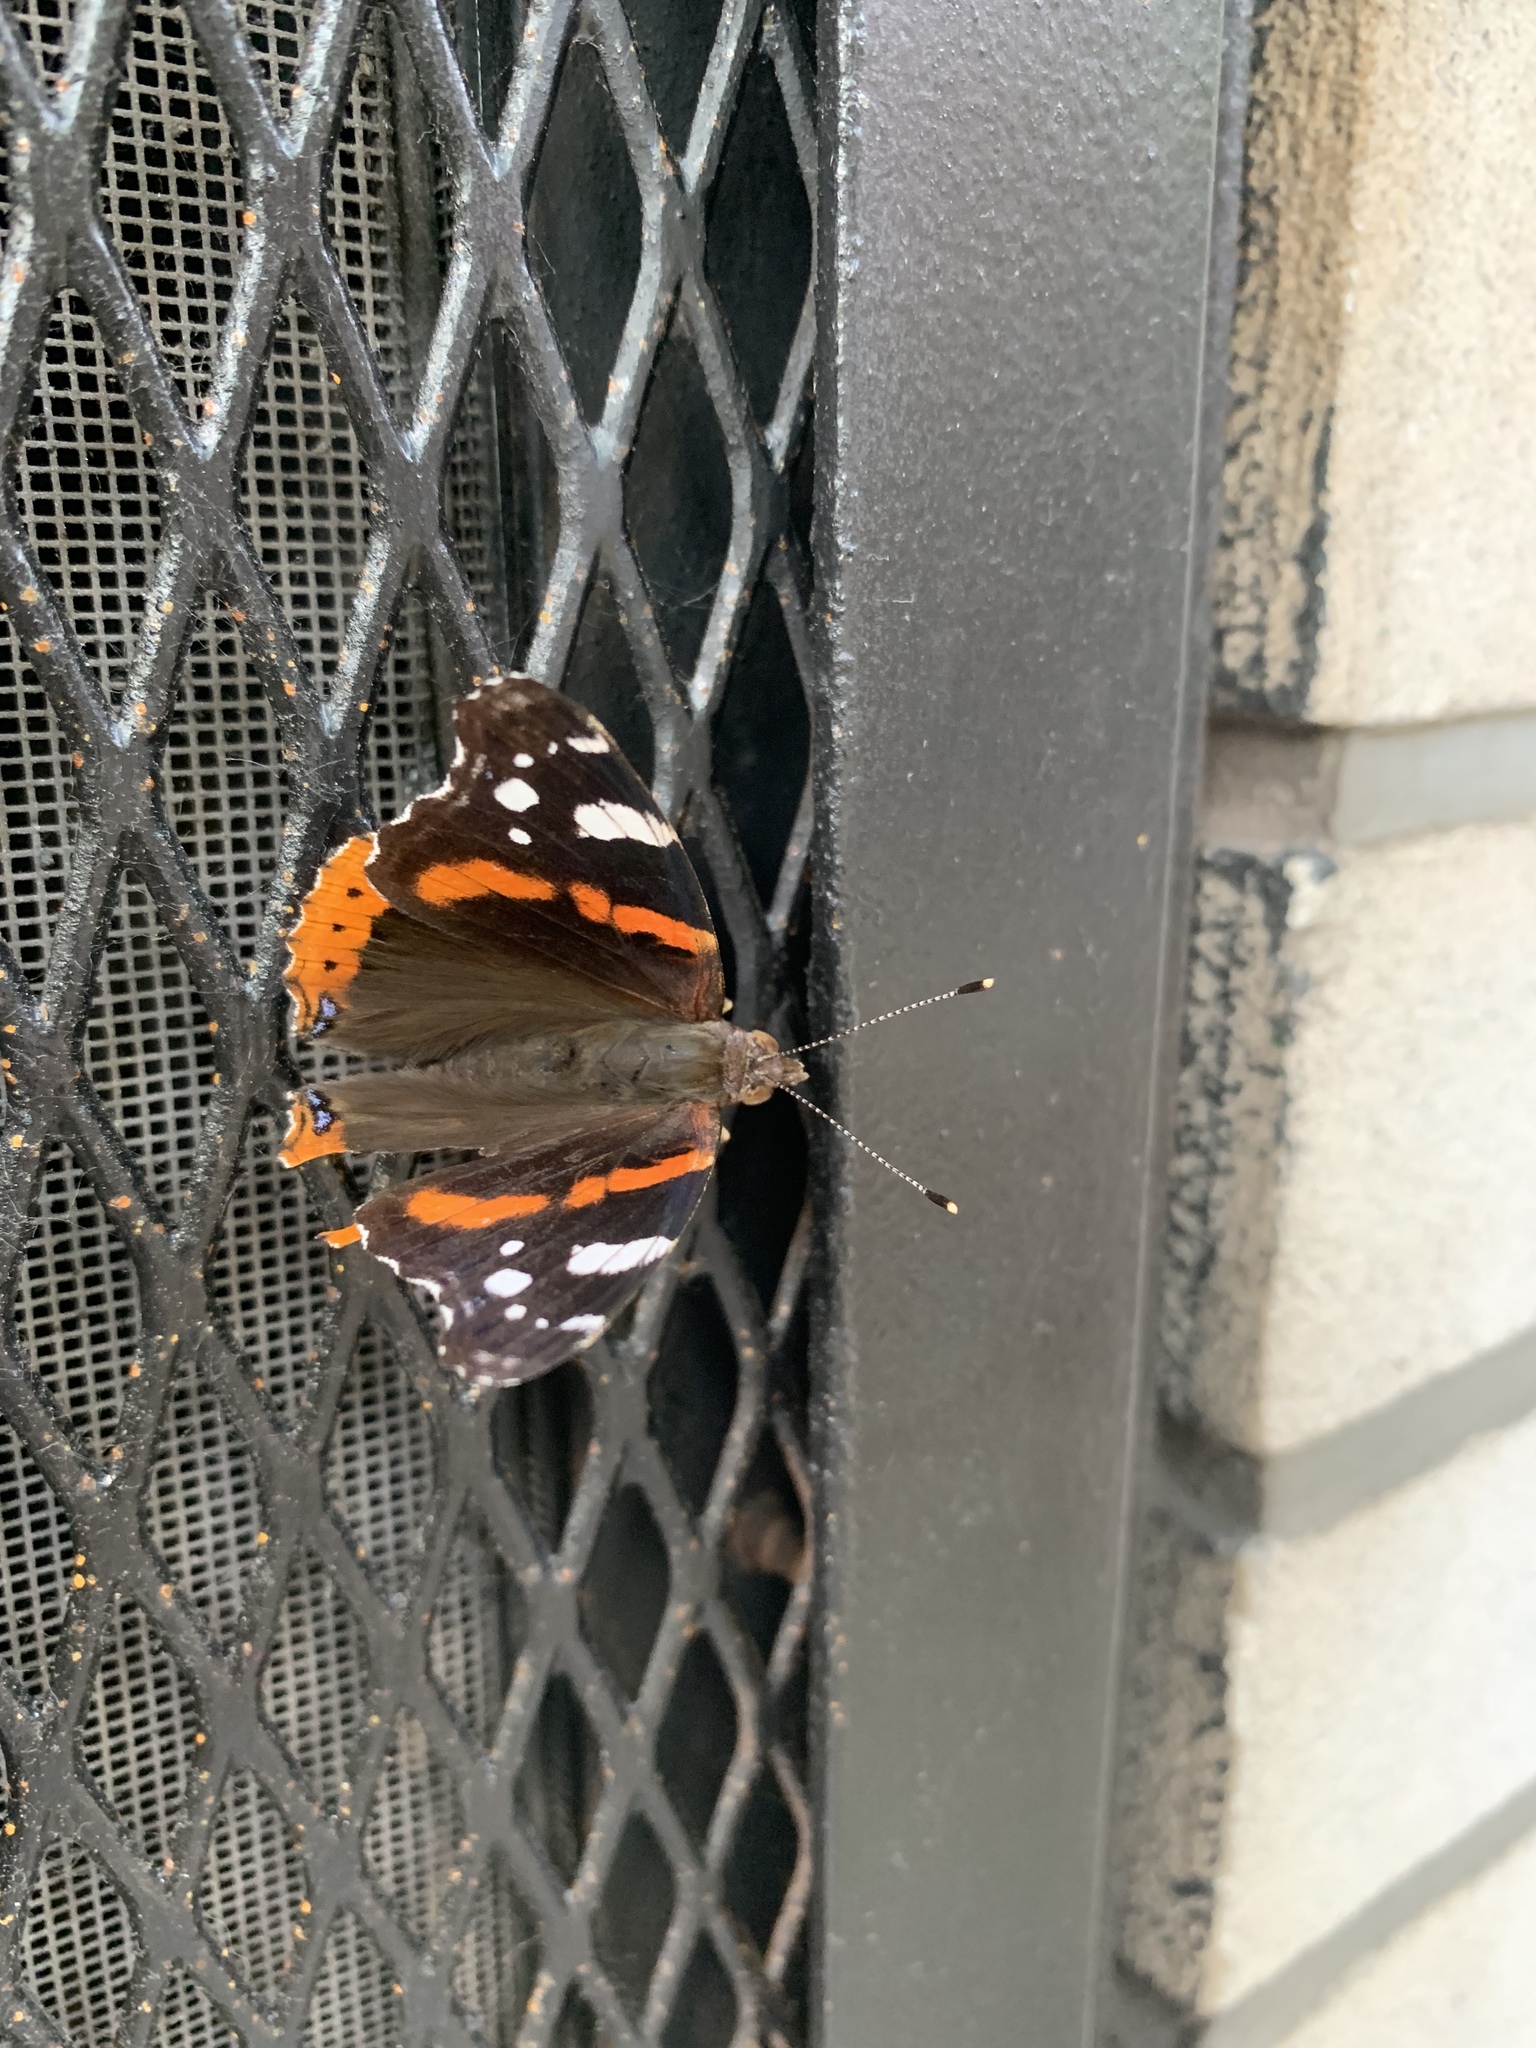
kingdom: Animalia
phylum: Arthropoda
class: Insecta
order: Lepidoptera
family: Nymphalidae
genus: Vanessa
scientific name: Vanessa atalanta
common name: Red admiral
